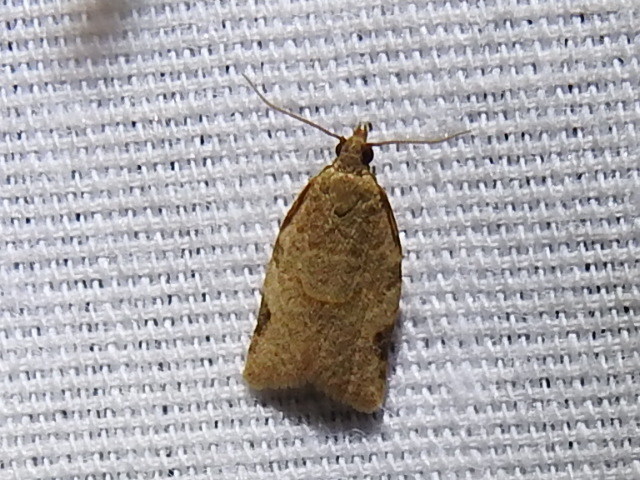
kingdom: Animalia
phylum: Arthropoda
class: Insecta
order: Lepidoptera
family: Tortricidae
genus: Clepsis
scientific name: Clepsis virescana
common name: Greenish apple moth
